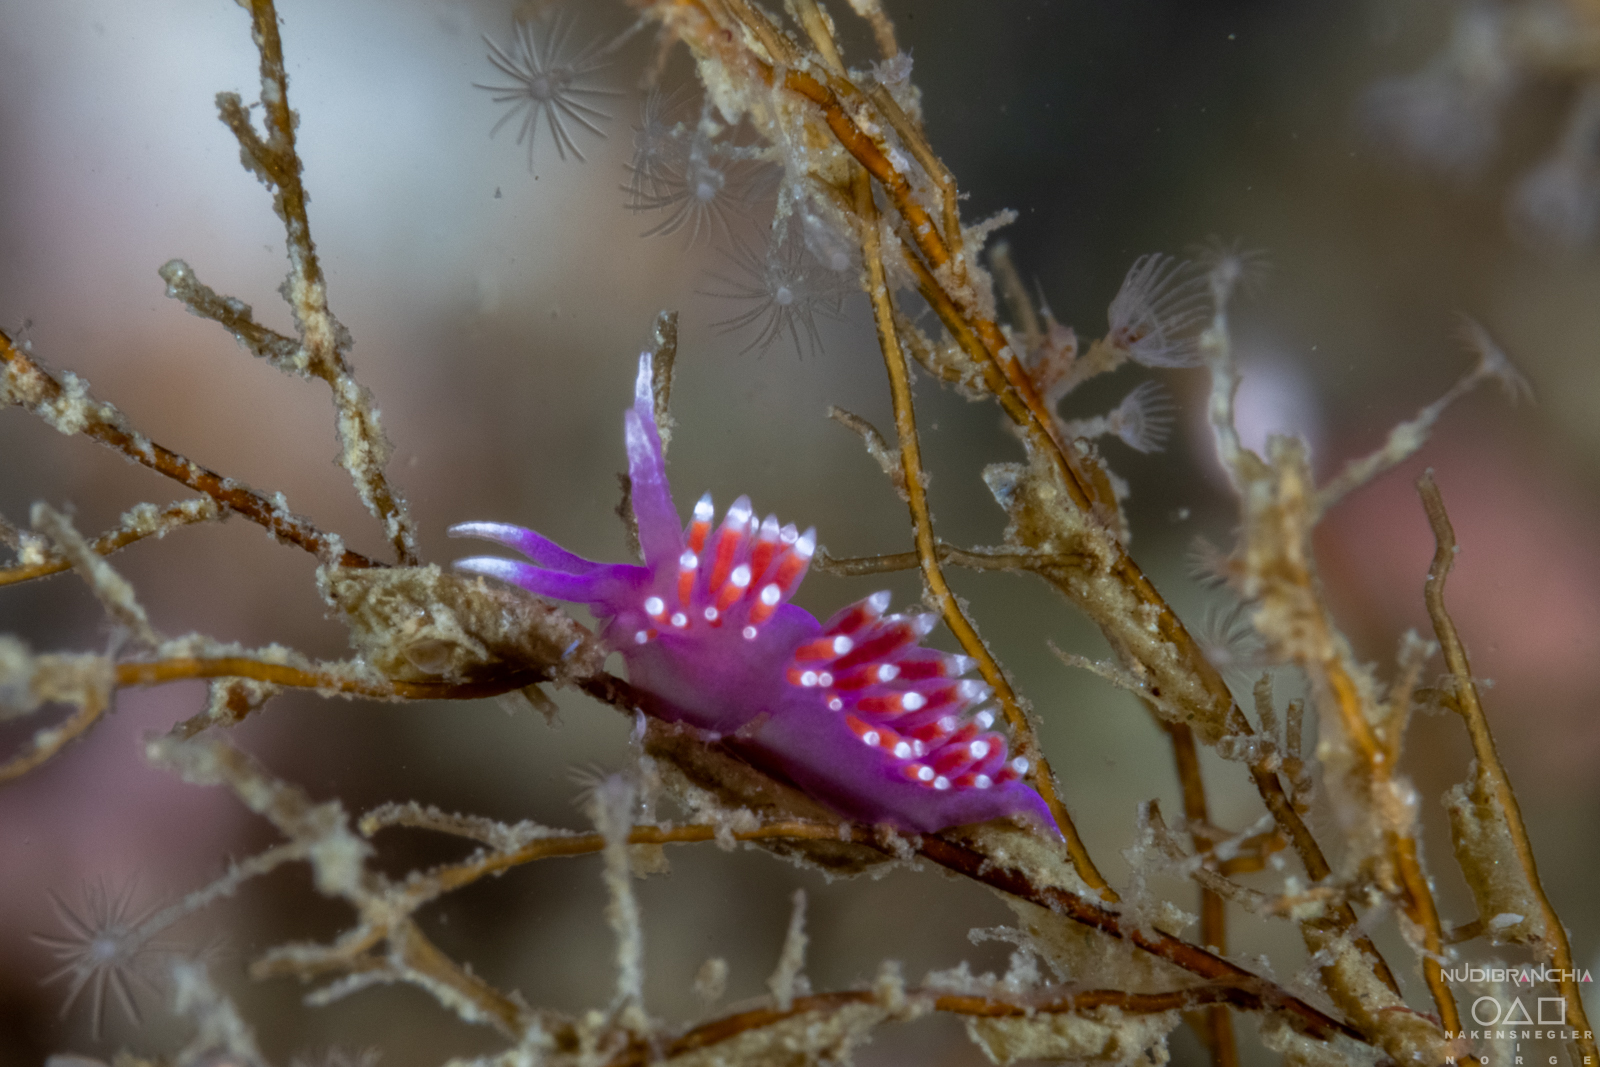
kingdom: Animalia
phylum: Mollusca
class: Gastropoda
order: Nudibranchia
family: Flabellinidae
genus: Edmundsella
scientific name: Edmundsella pedata
